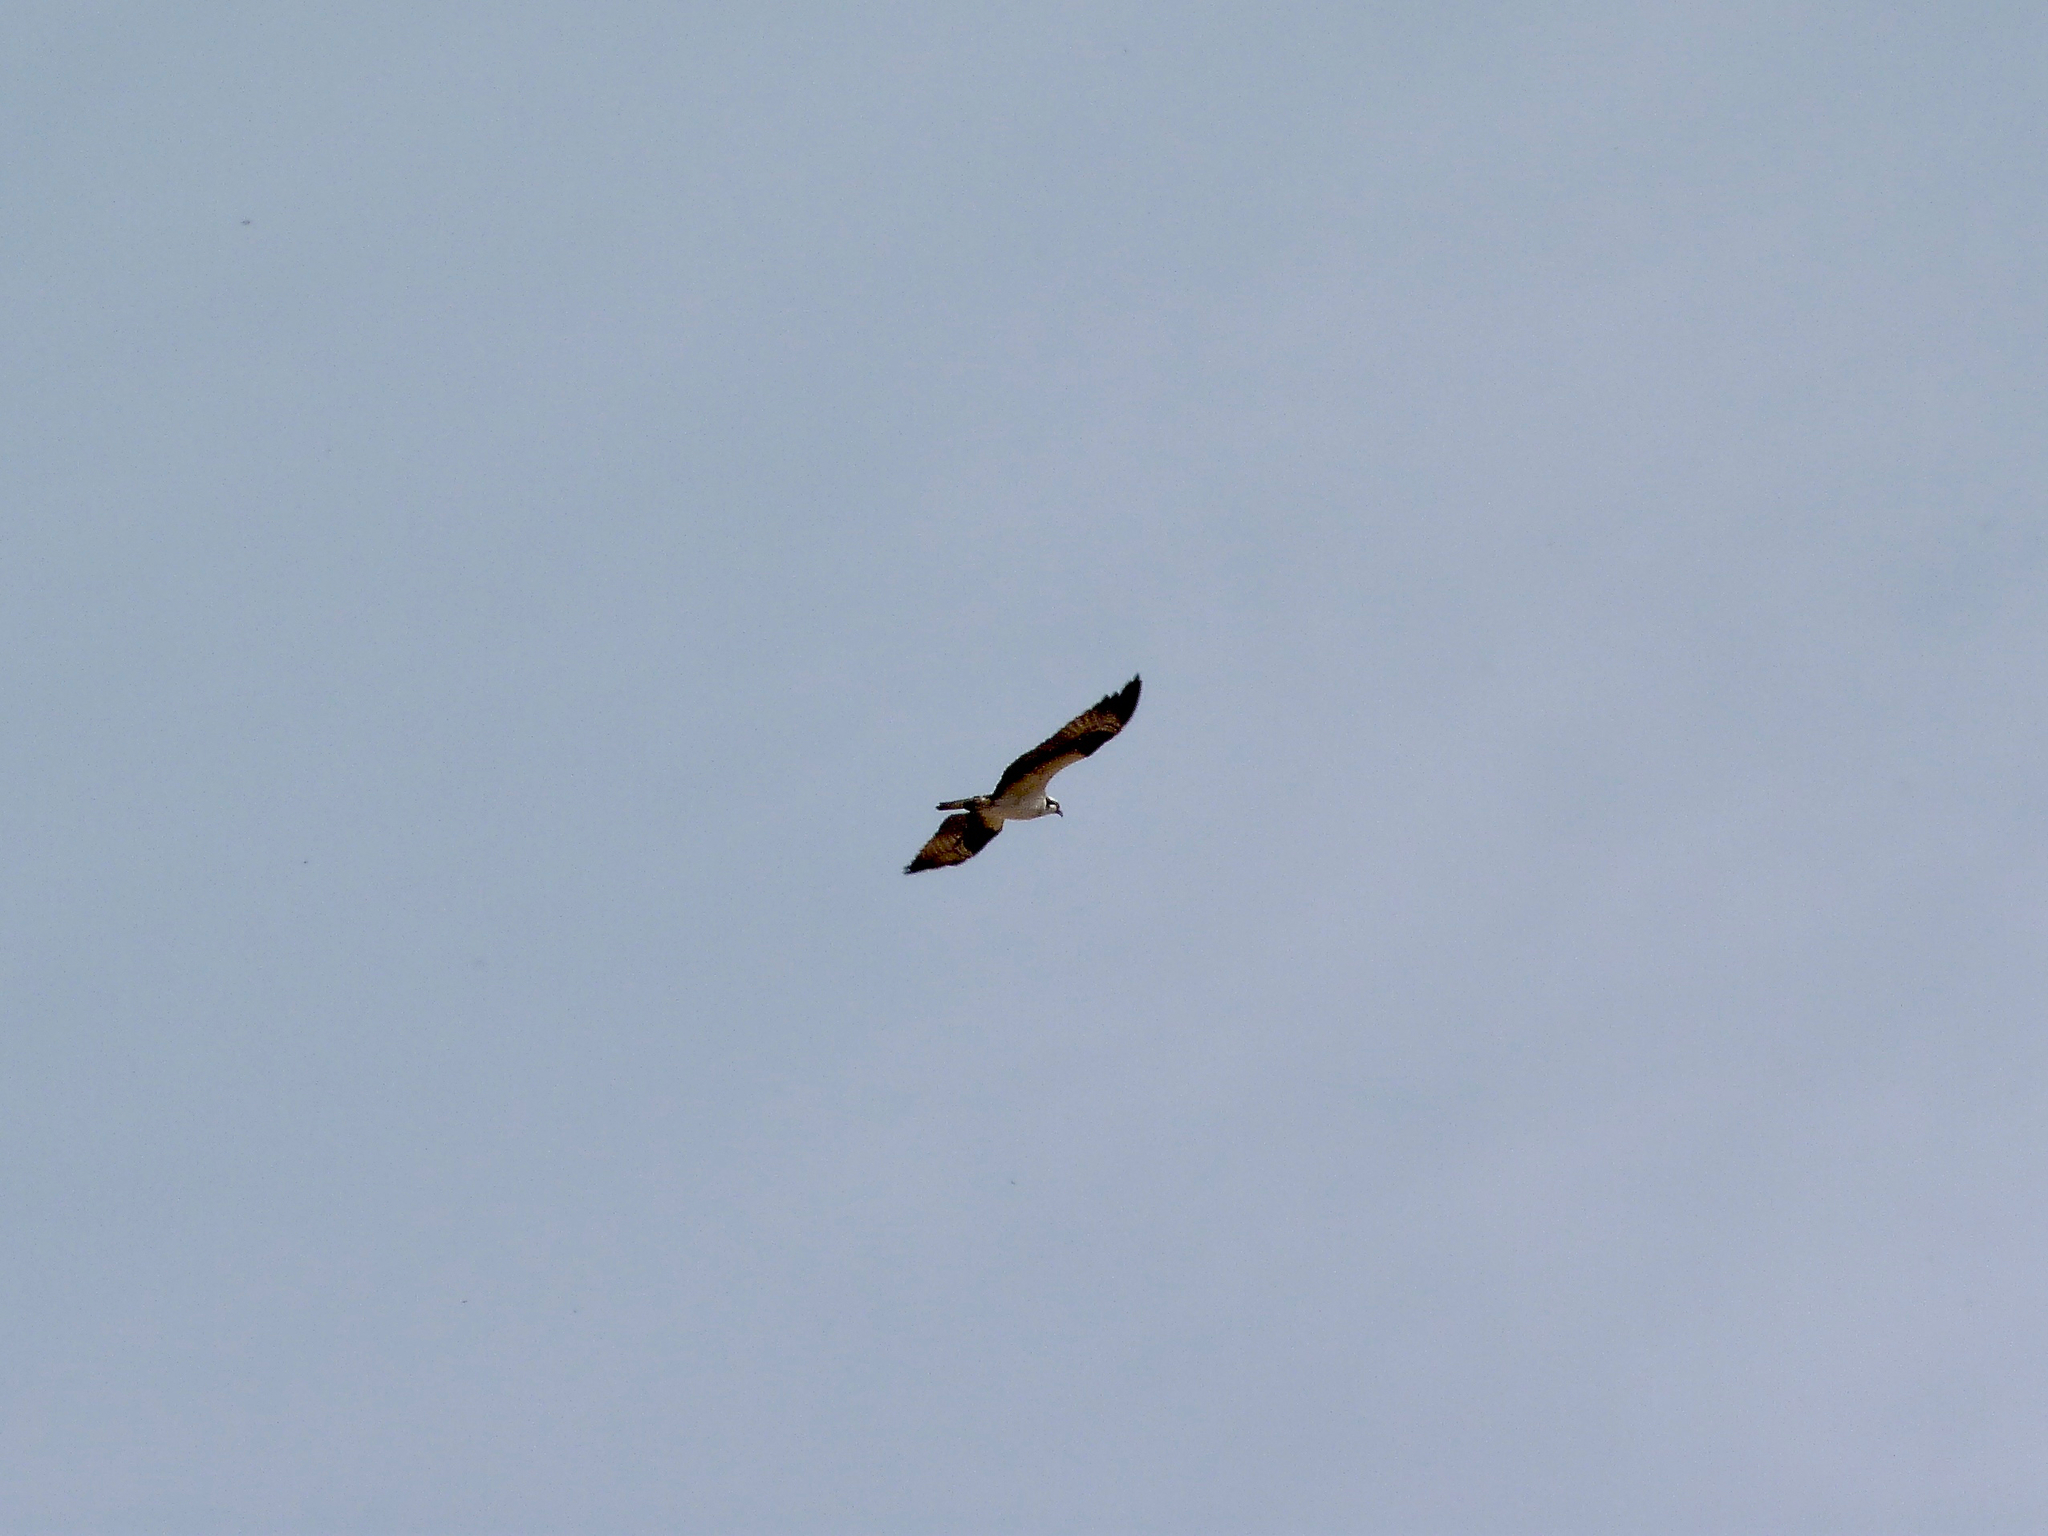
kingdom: Animalia
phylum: Chordata
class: Aves
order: Accipitriformes
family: Pandionidae
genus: Pandion
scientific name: Pandion haliaetus
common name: Osprey
